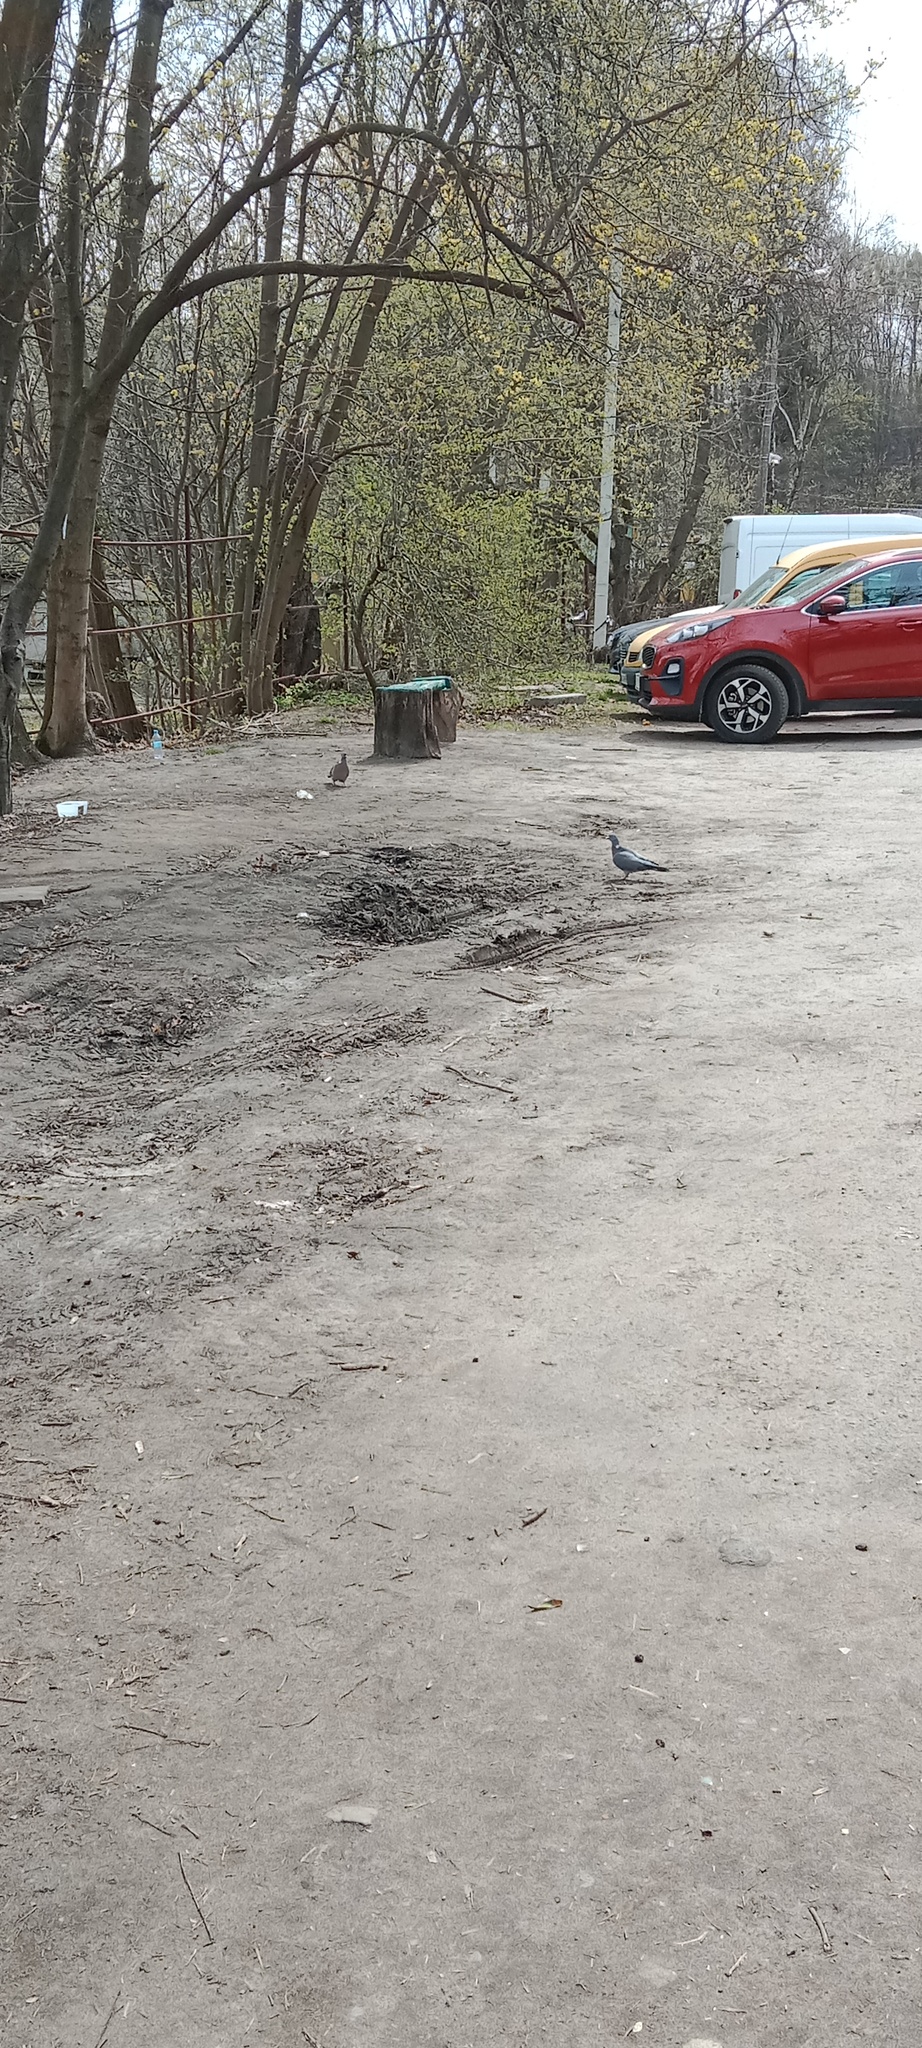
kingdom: Animalia
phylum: Chordata
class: Aves
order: Columbiformes
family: Columbidae
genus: Columba
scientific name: Columba palumbus
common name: Common wood pigeon
